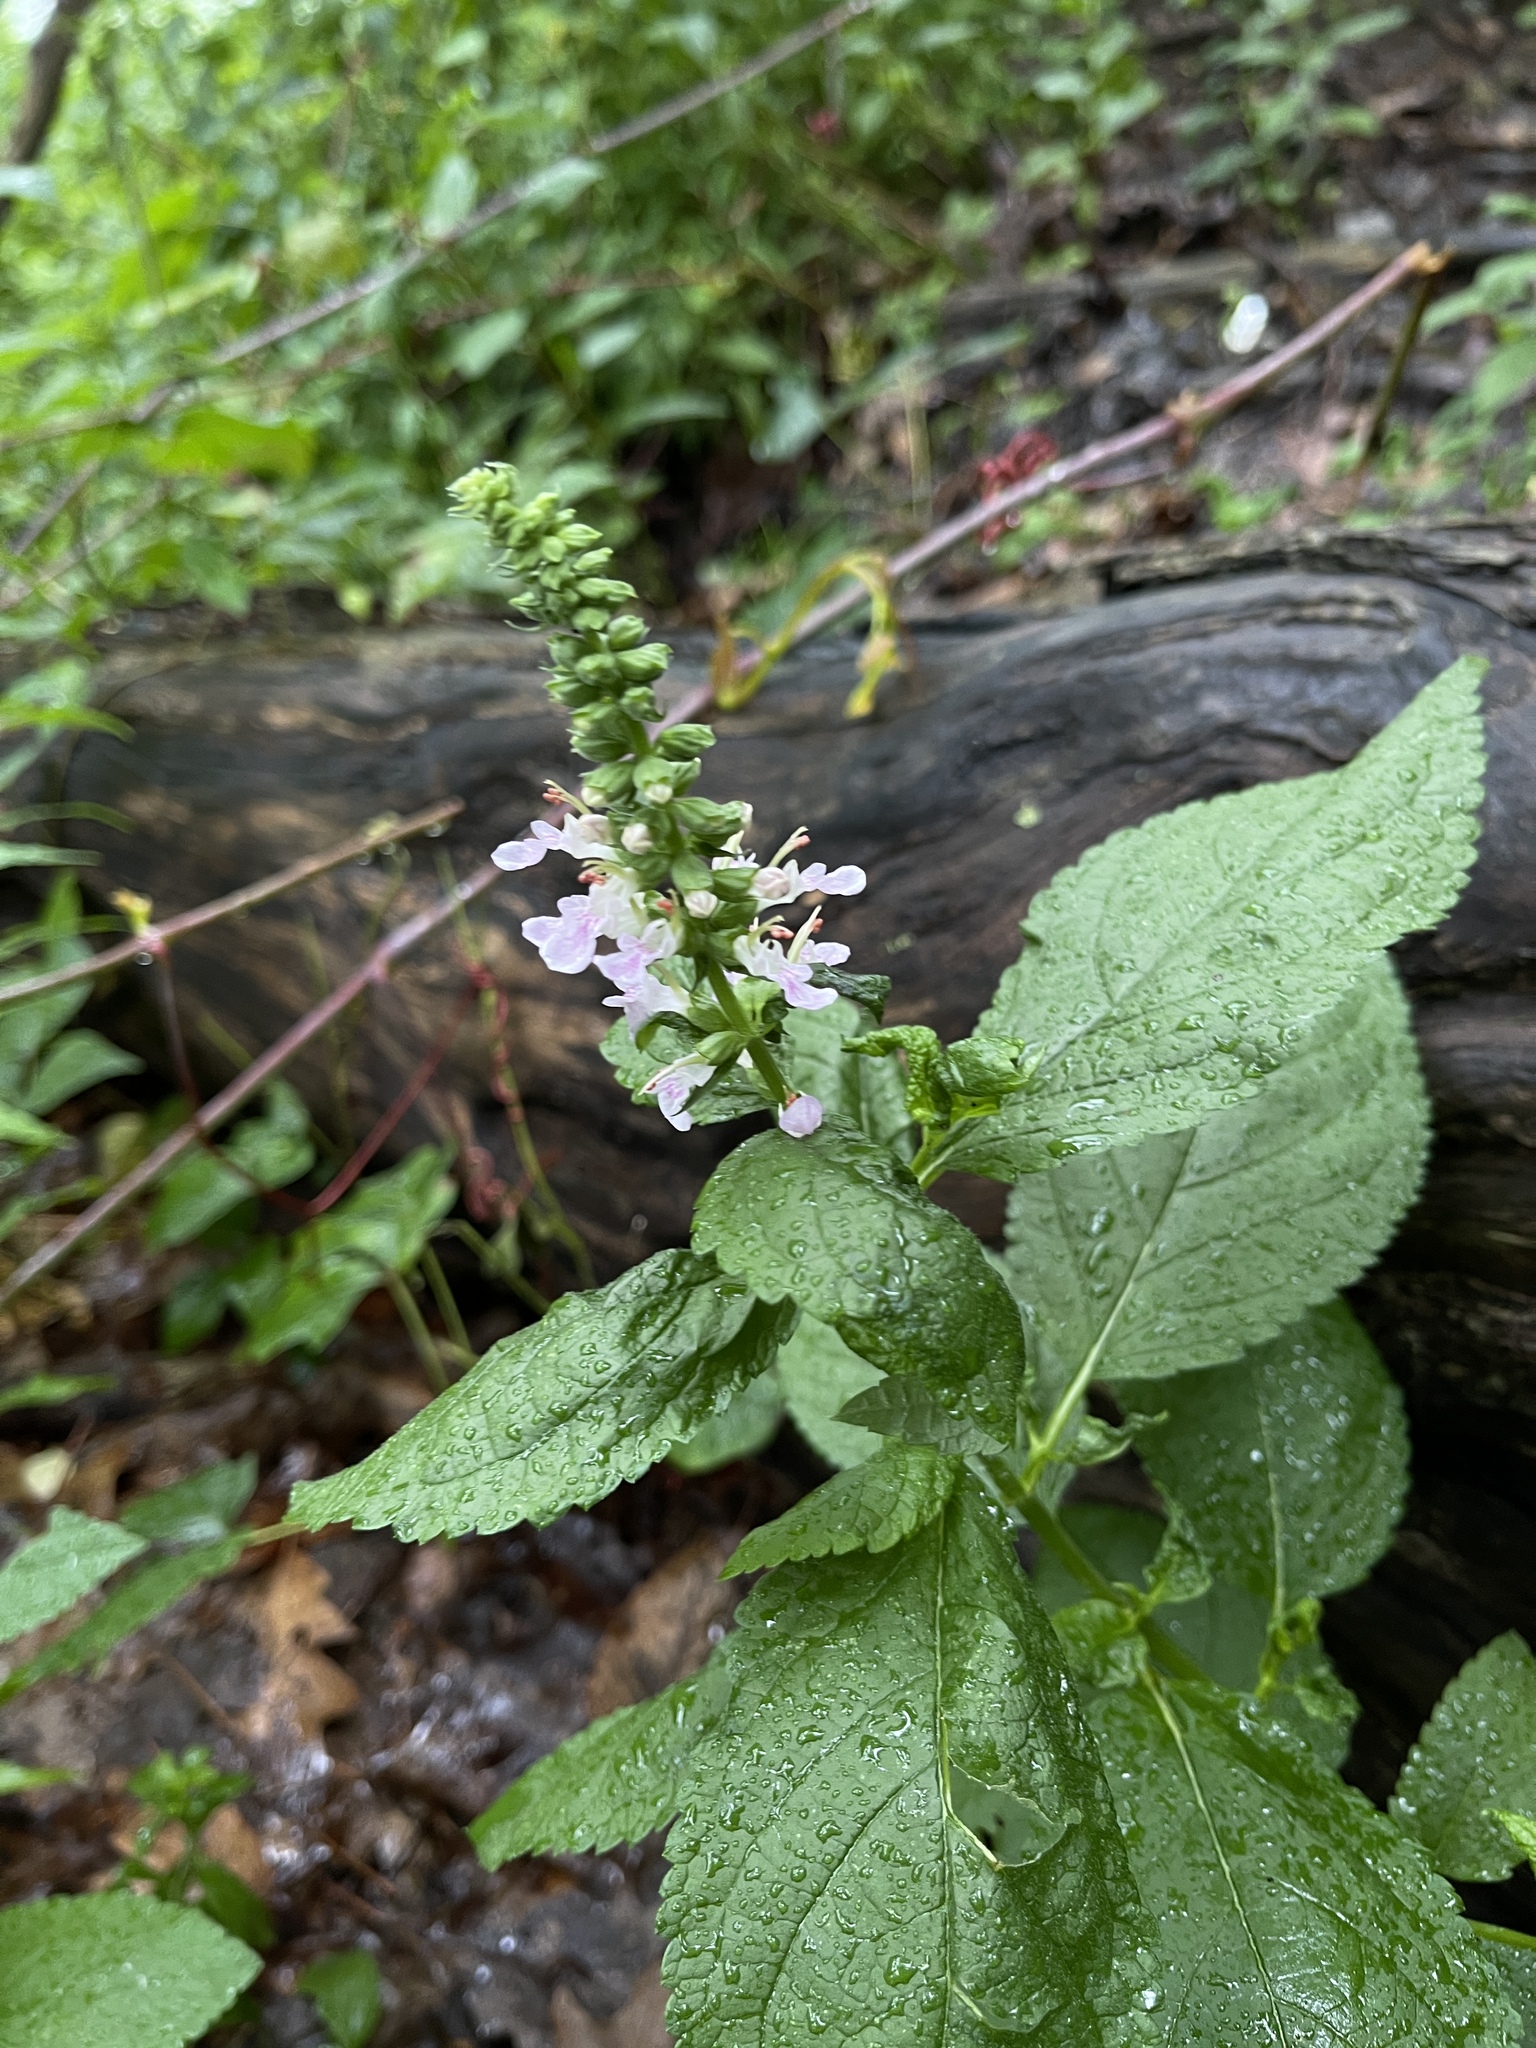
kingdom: Plantae
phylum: Tracheophyta
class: Magnoliopsida
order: Lamiales
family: Lamiaceae
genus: Teucrium
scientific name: Teucrium canadense
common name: American germander
